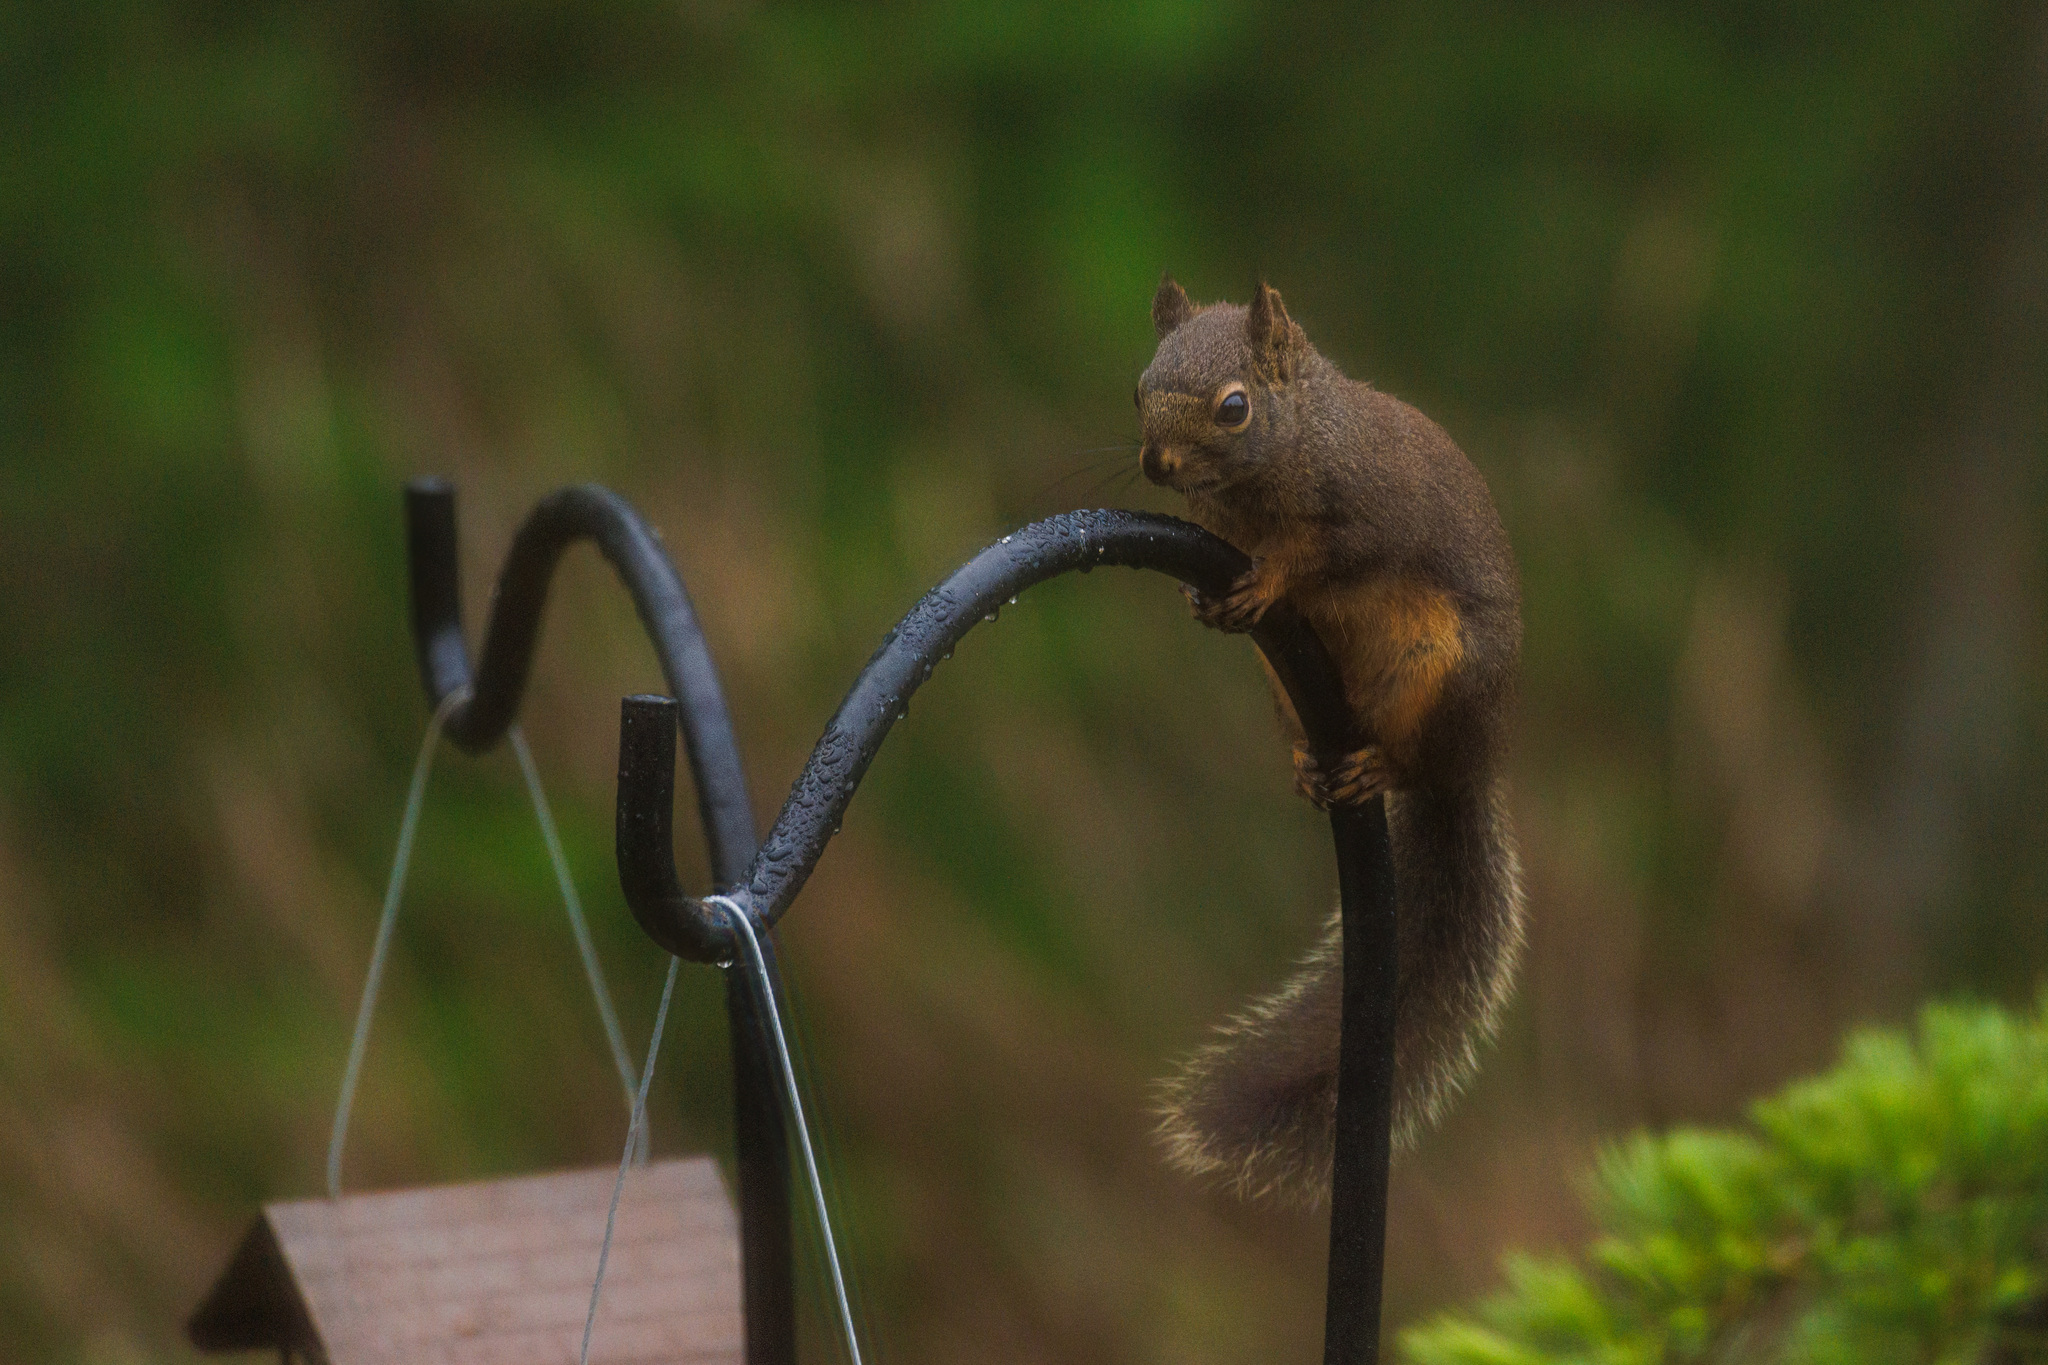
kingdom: Animalia
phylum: Chordata
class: Mammalia
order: Rodentia
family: Sciuridae
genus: Tamiasciurus
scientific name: Tamiasciurus douglasii
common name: Douglas's squirrel
